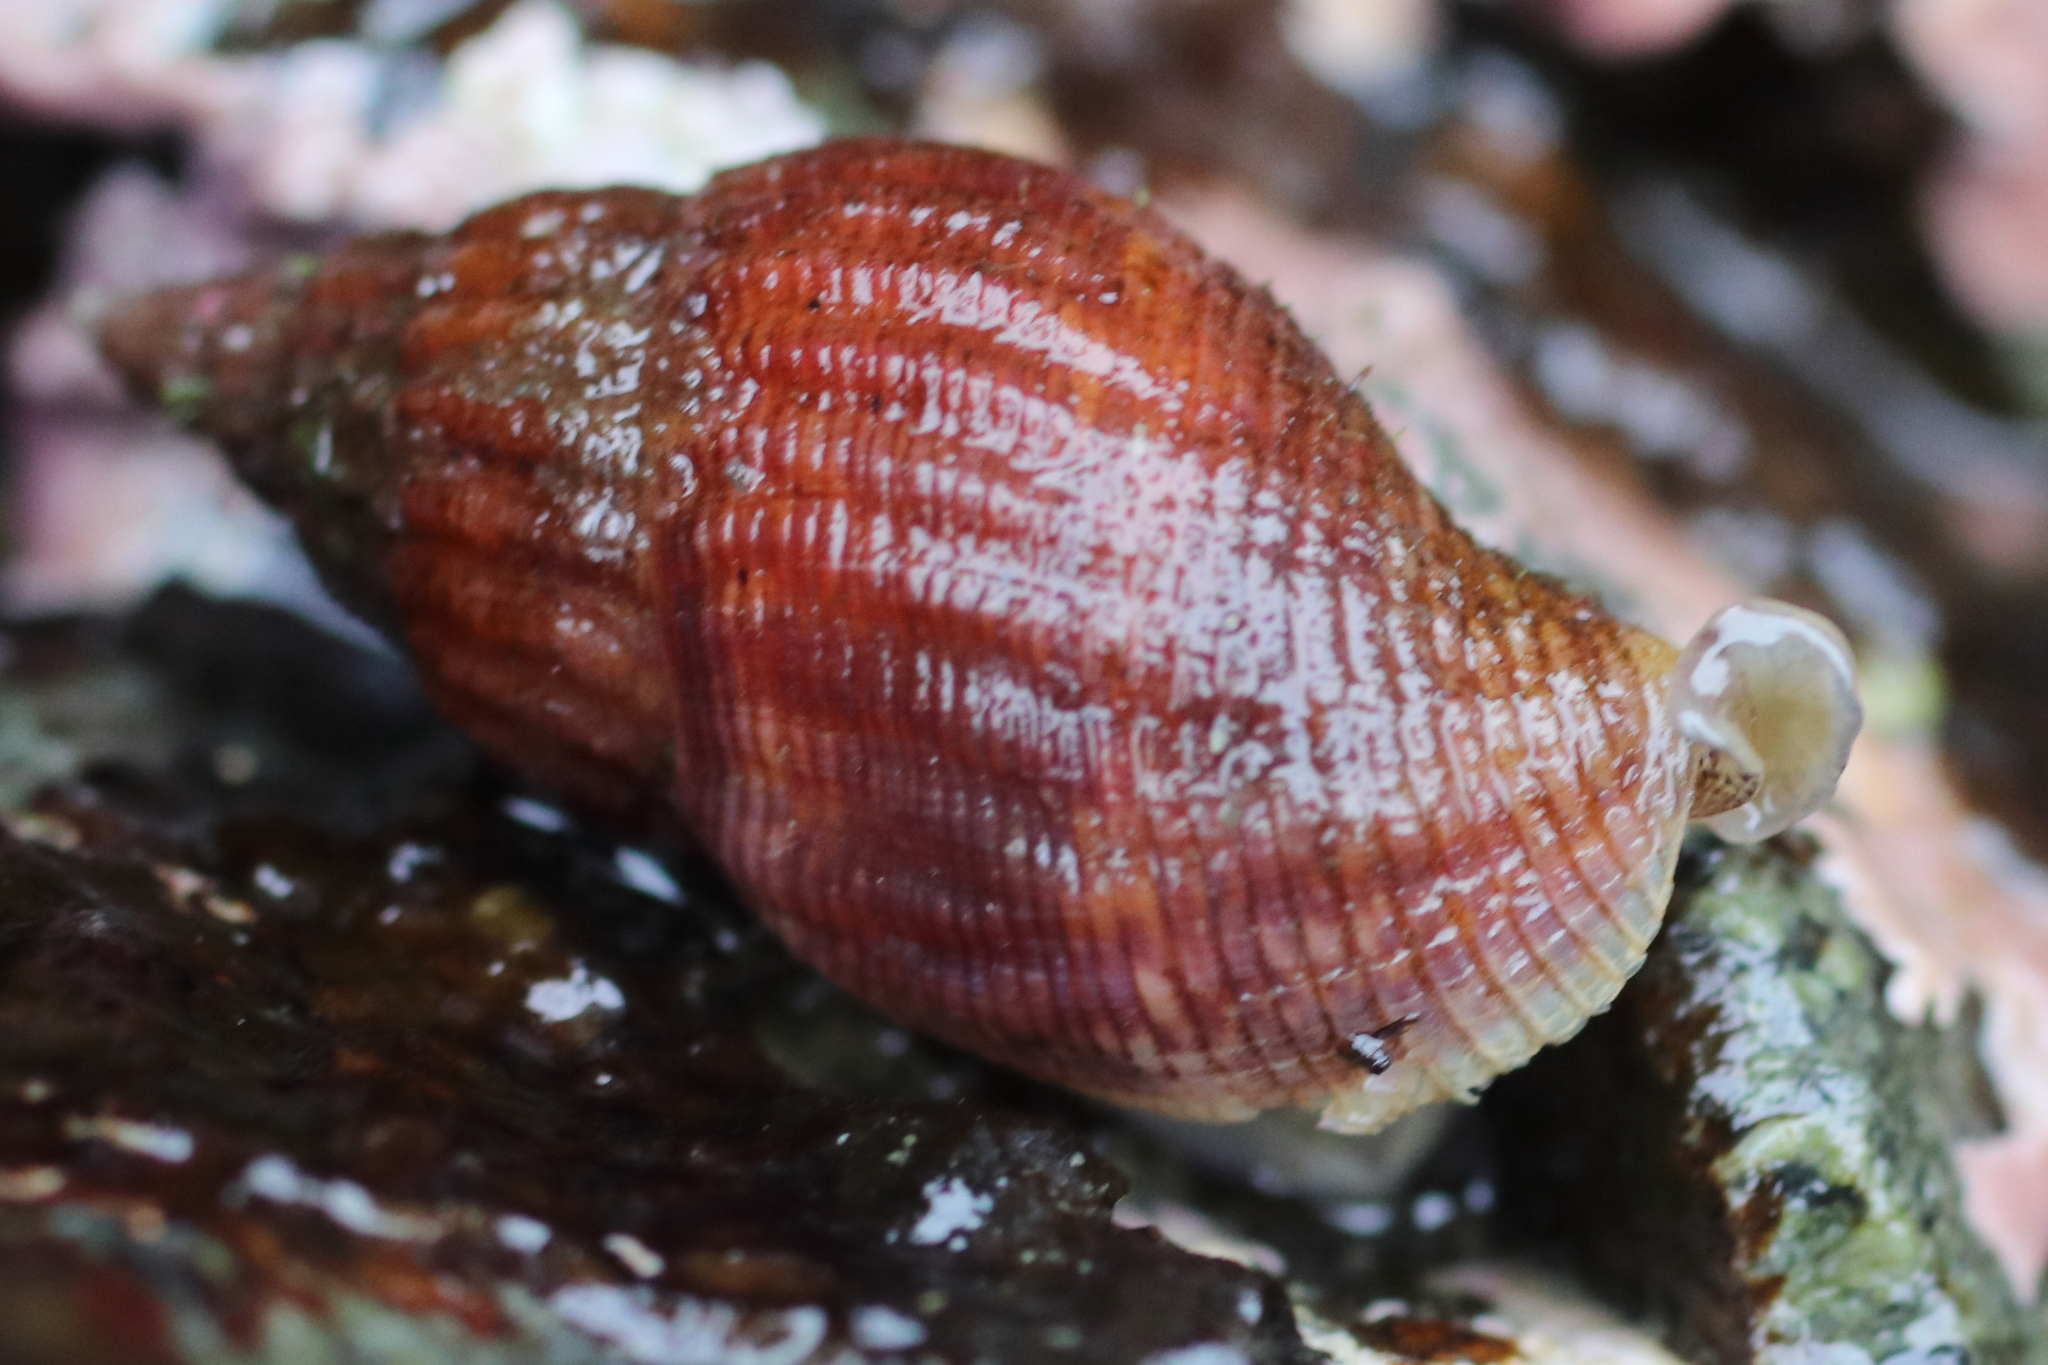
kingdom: Animalia
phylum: Mollusca
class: Gastropoda
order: Neogastropoda
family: Columbellidae
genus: Amphissa
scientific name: Amphissa columbiana
